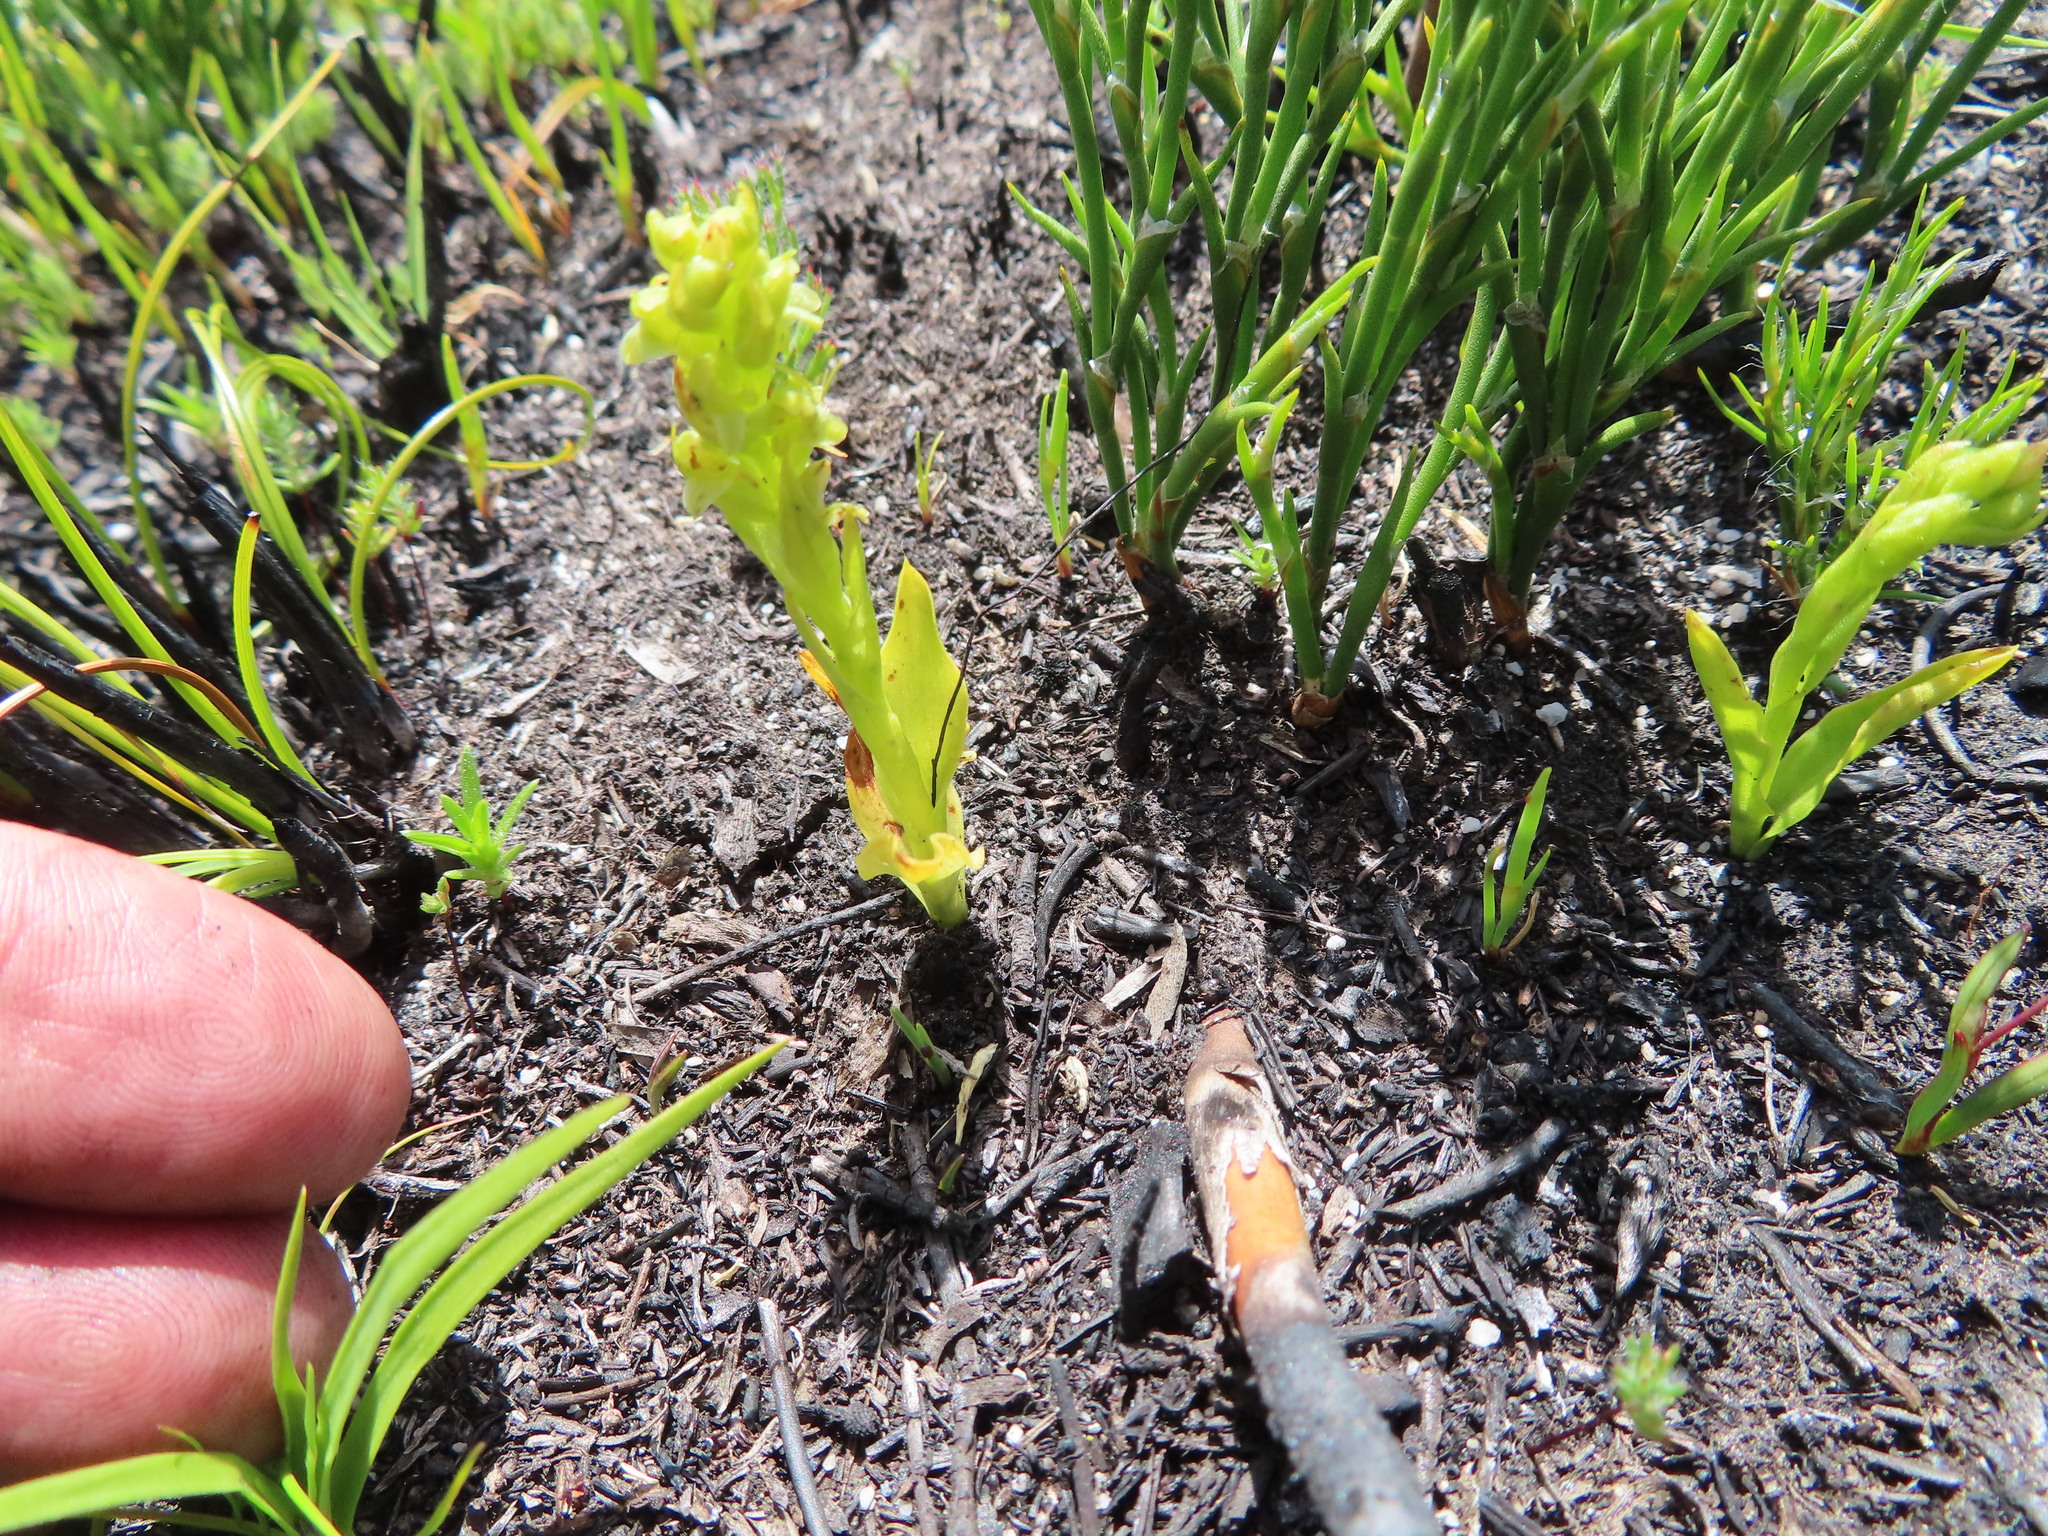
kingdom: Plantae
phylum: Tracheophyta
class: Liliopsida
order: Asparagales
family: Orchidaceae
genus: Disa
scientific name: Disa cylindrica
